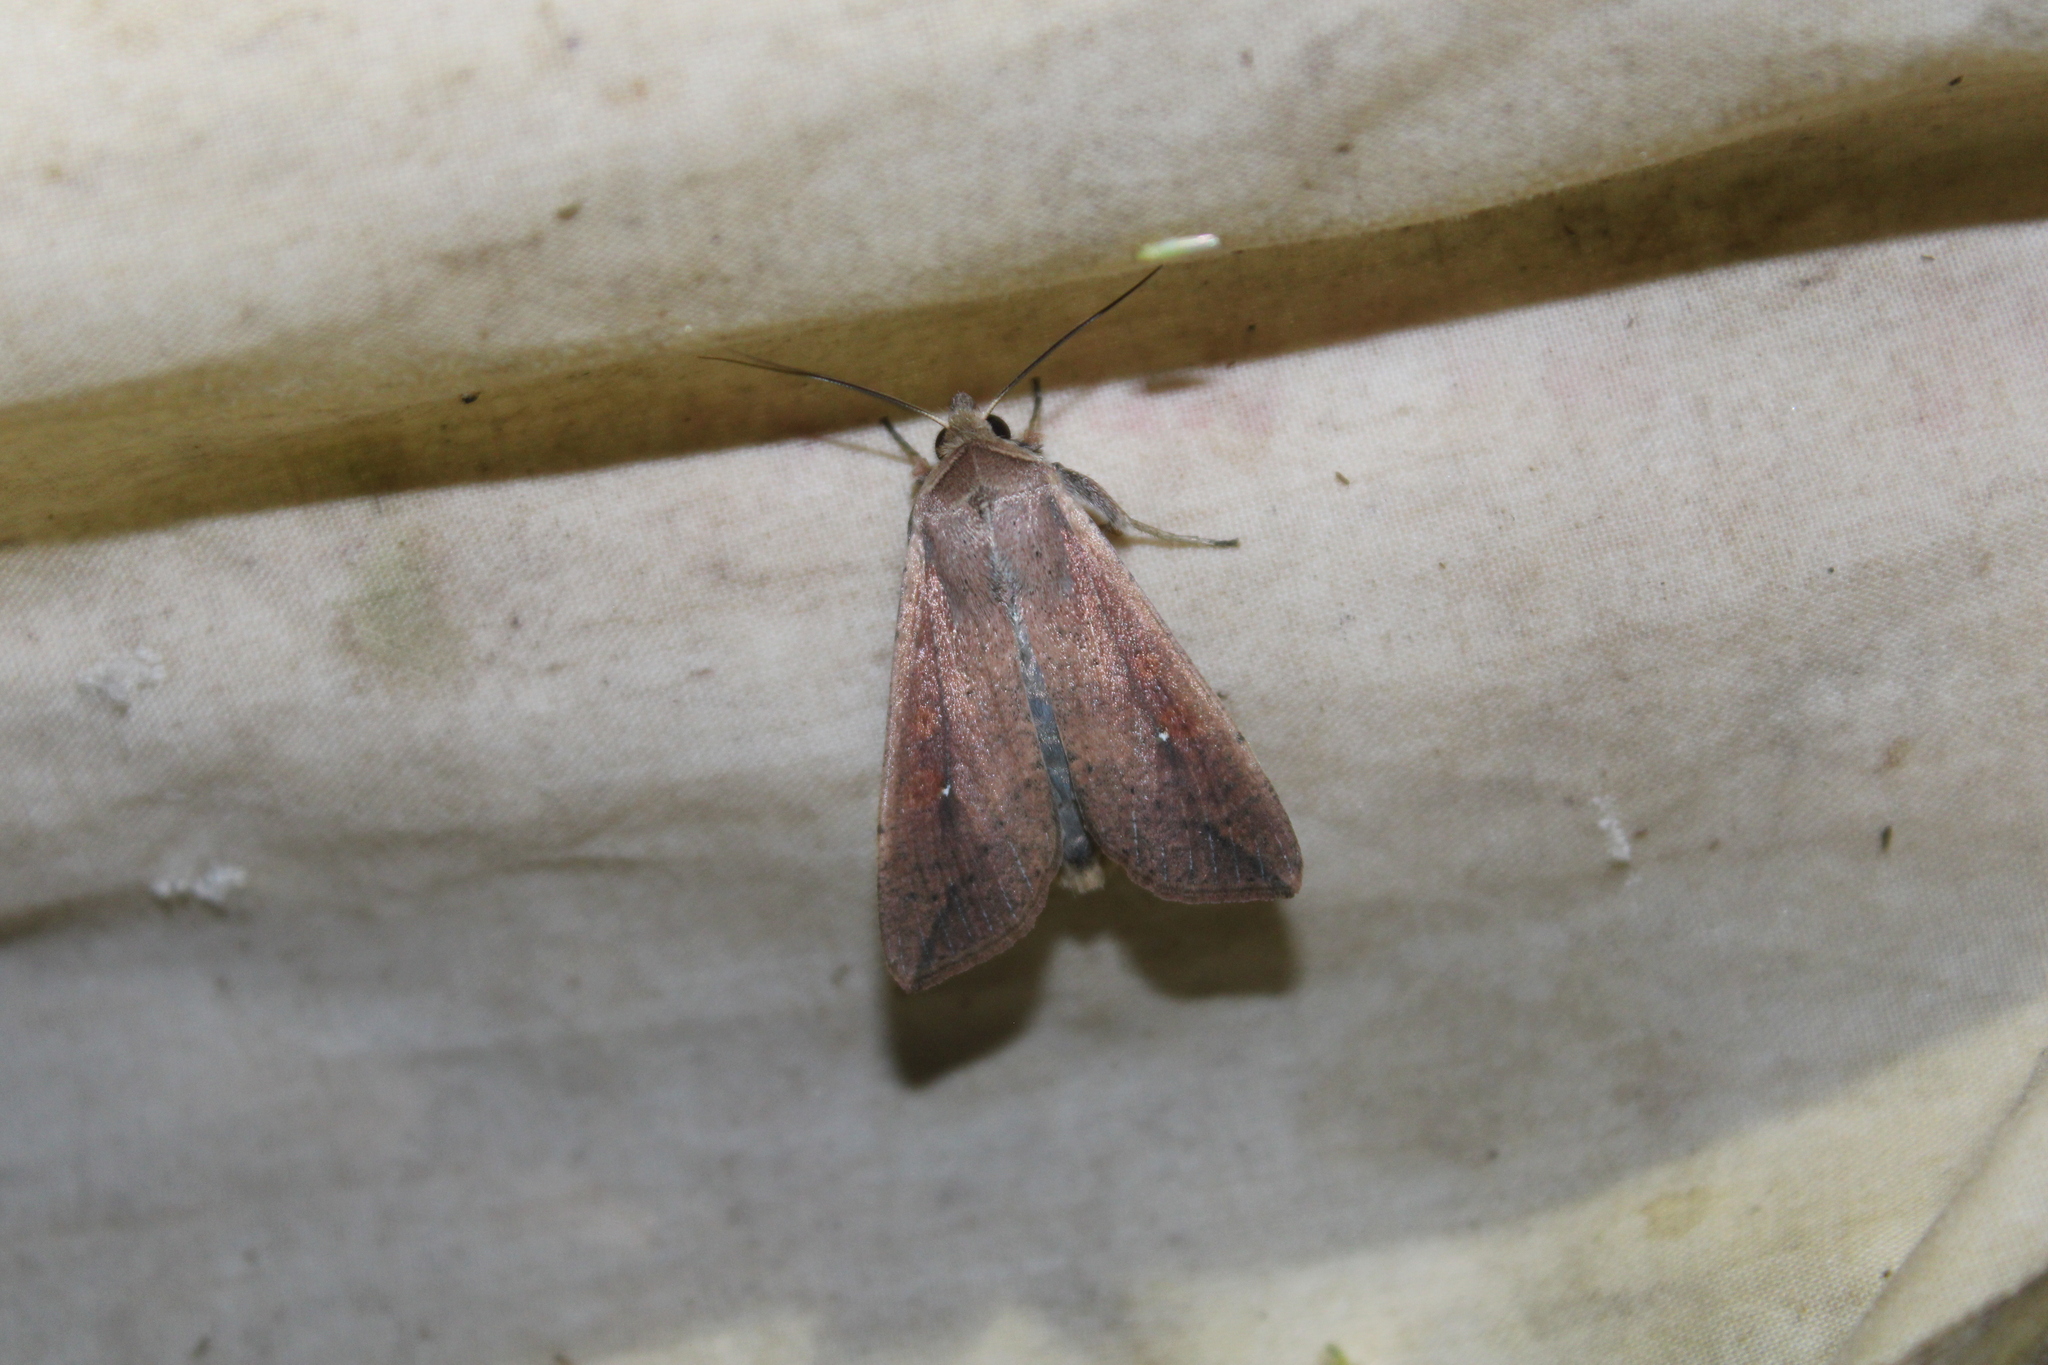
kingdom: Animalia
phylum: Arthropoda
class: Insecta
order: Lepidoptera
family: Noctuidae
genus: Mythimna
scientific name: Mythimna unipuncta
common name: White-speck
